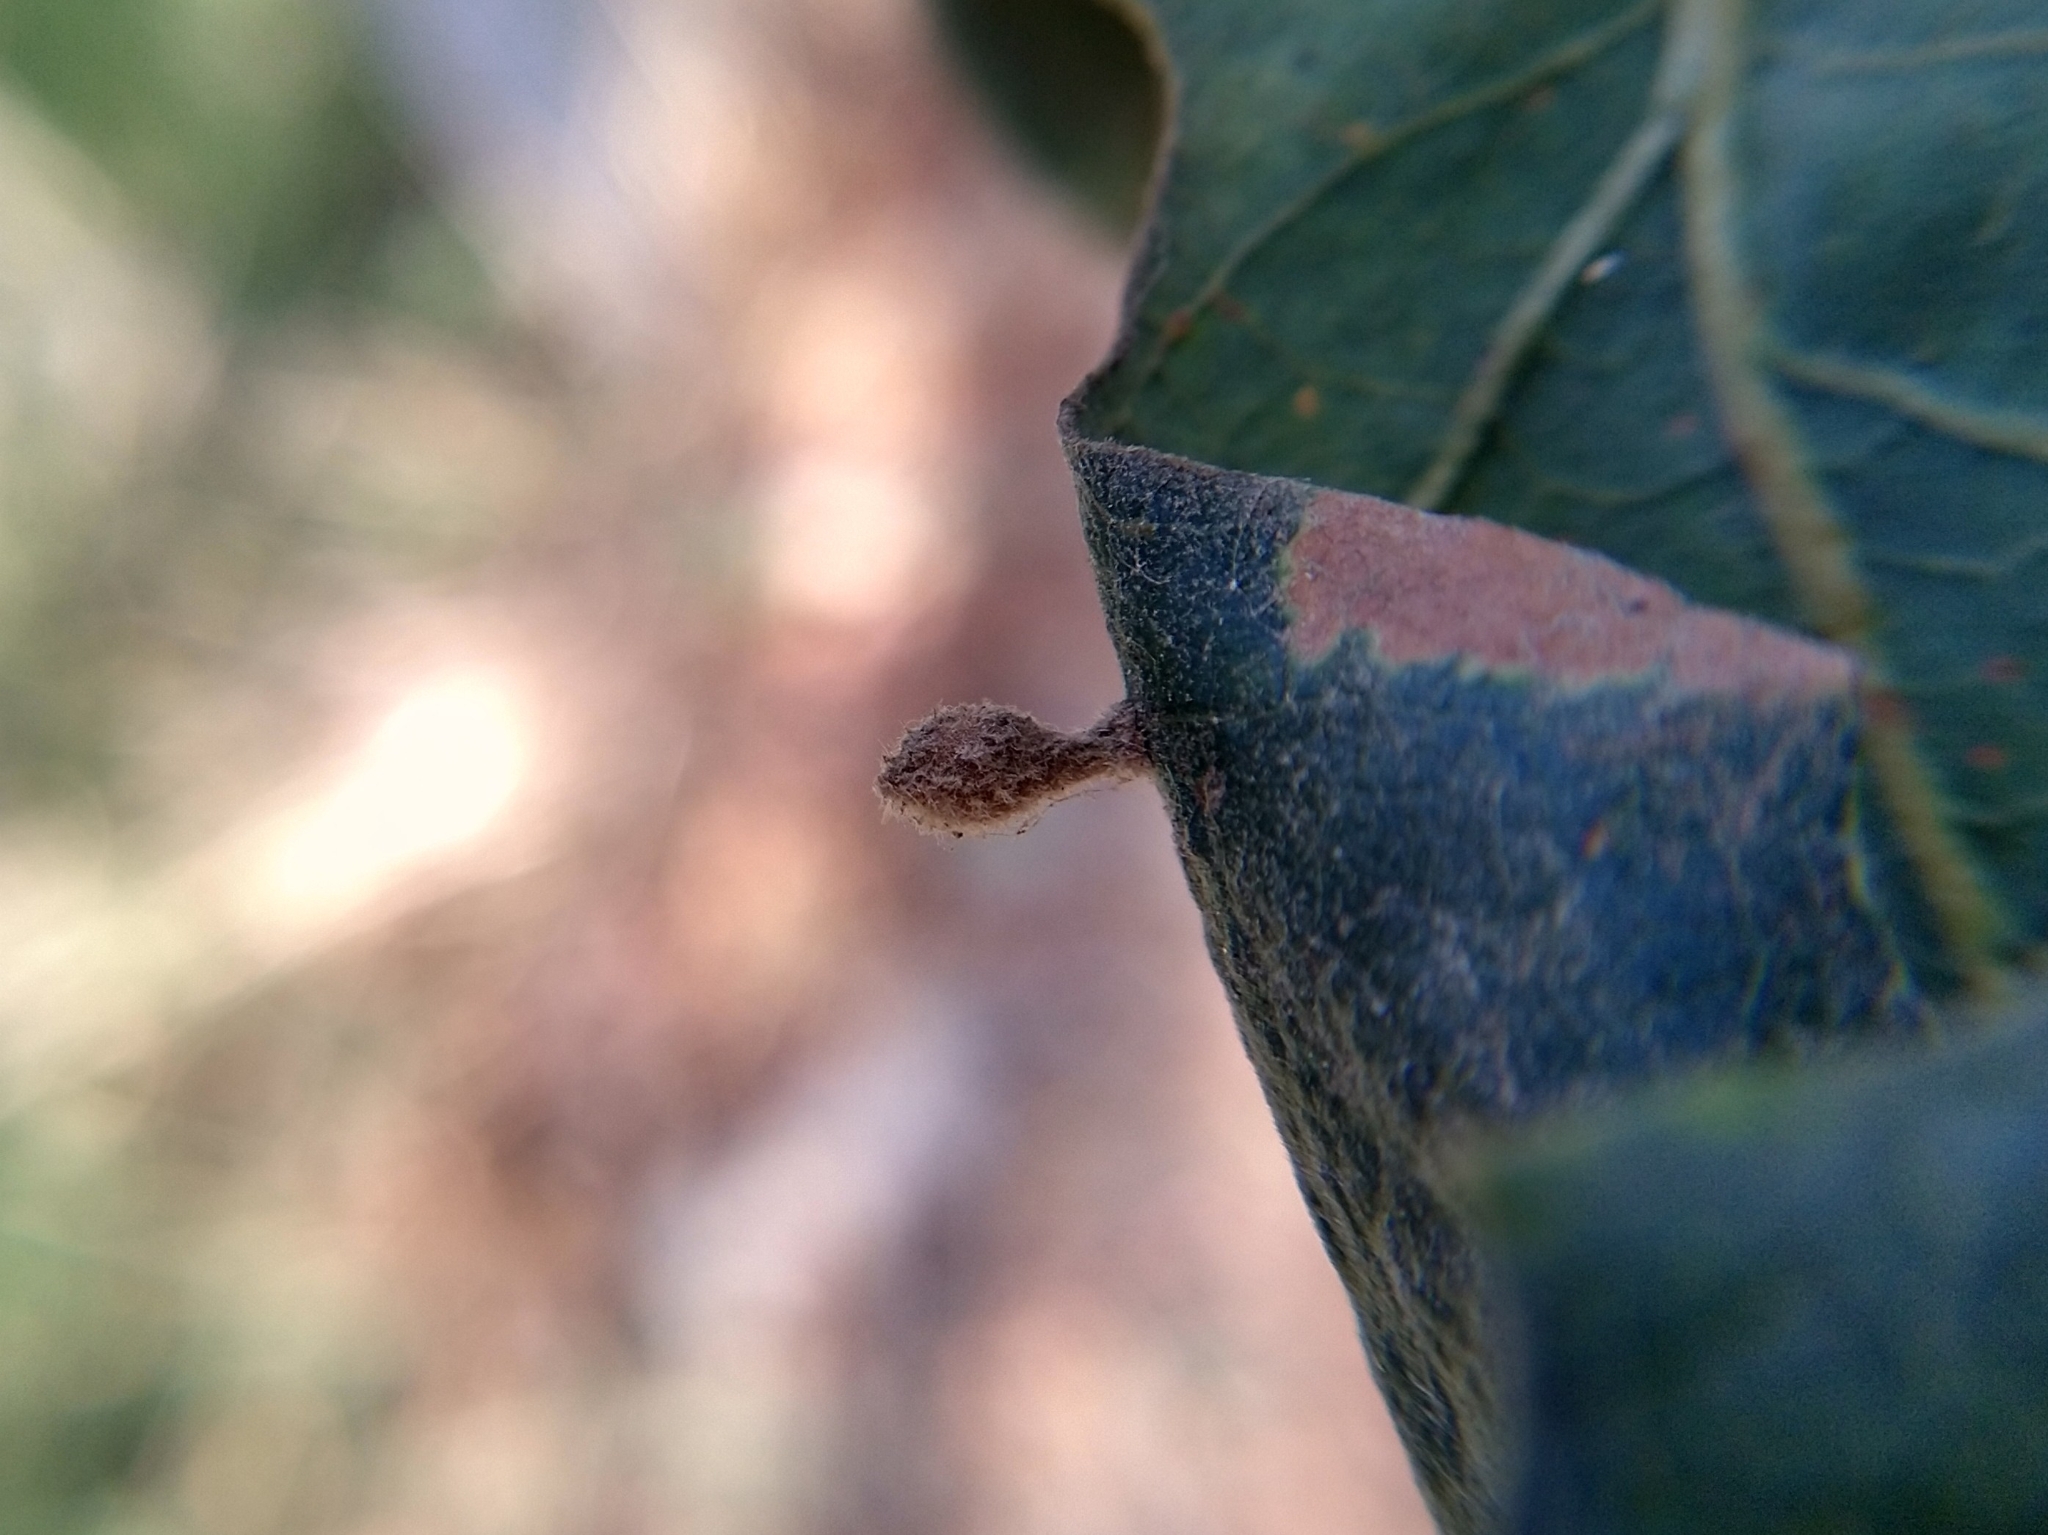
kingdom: Animalia
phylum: Arthropoda
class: Insecta
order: Hymenoptera
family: Cynipidae
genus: Atrusca
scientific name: Atrusca
